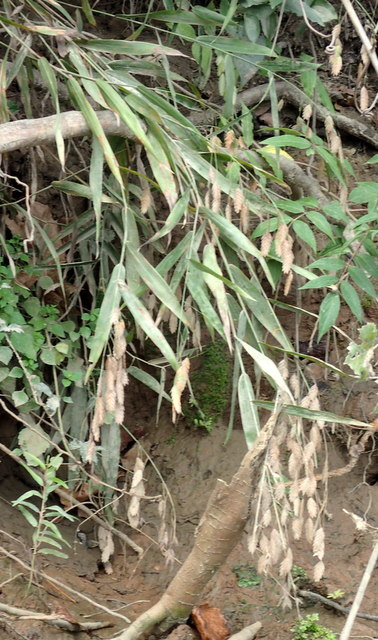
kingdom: Plantae
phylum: Tracheophyta
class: Liliopsida
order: Poales
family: Poaceae
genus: Chasmanthium
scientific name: Chasmanthium latifolium
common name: Broad-leaved chasmanthium
